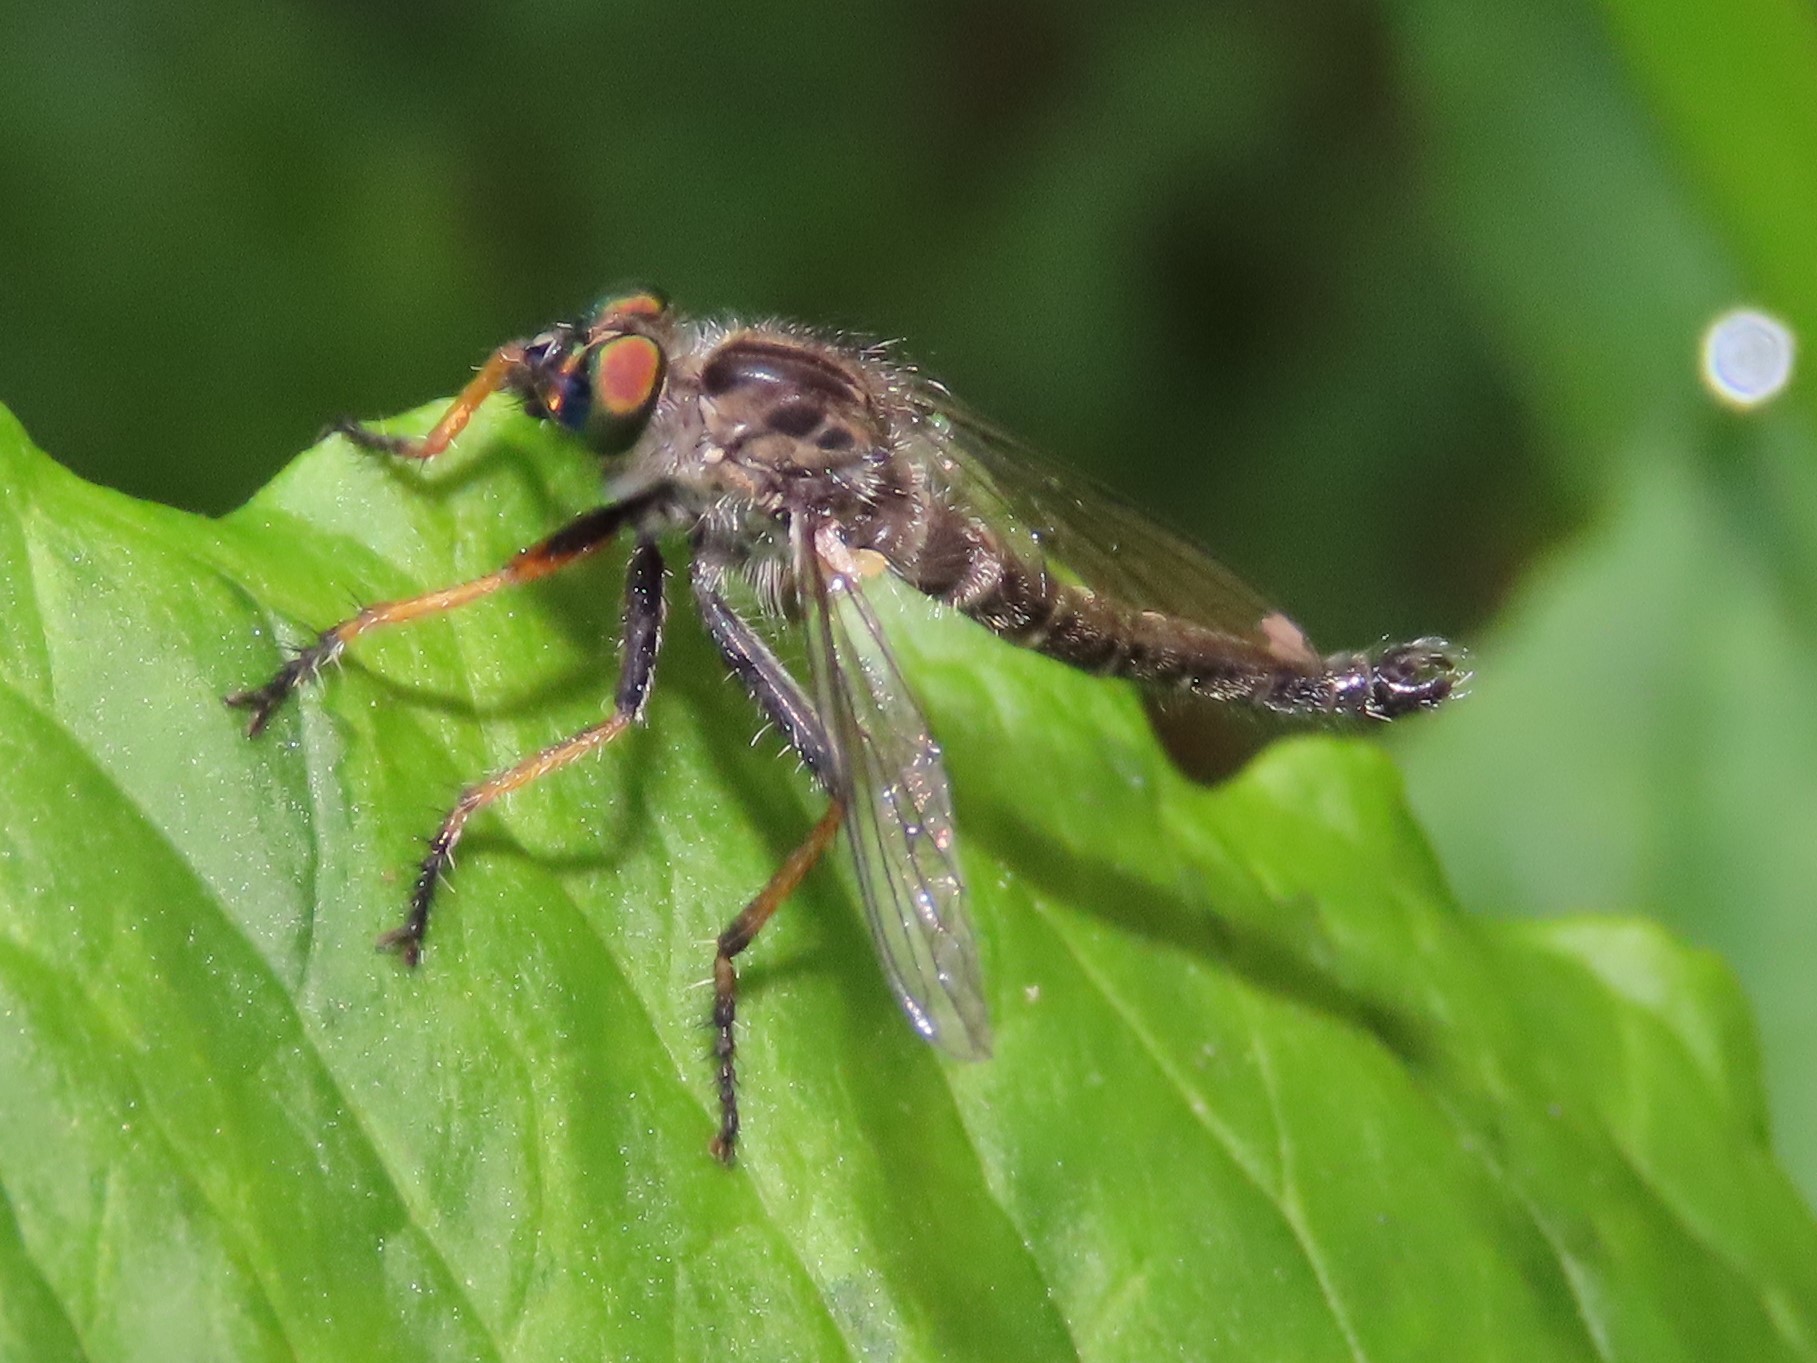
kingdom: Animalia
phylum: Arthropoda
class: Insecta
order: Diptera
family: Asilidae
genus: Asilus
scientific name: Asilus flavofemoratus
